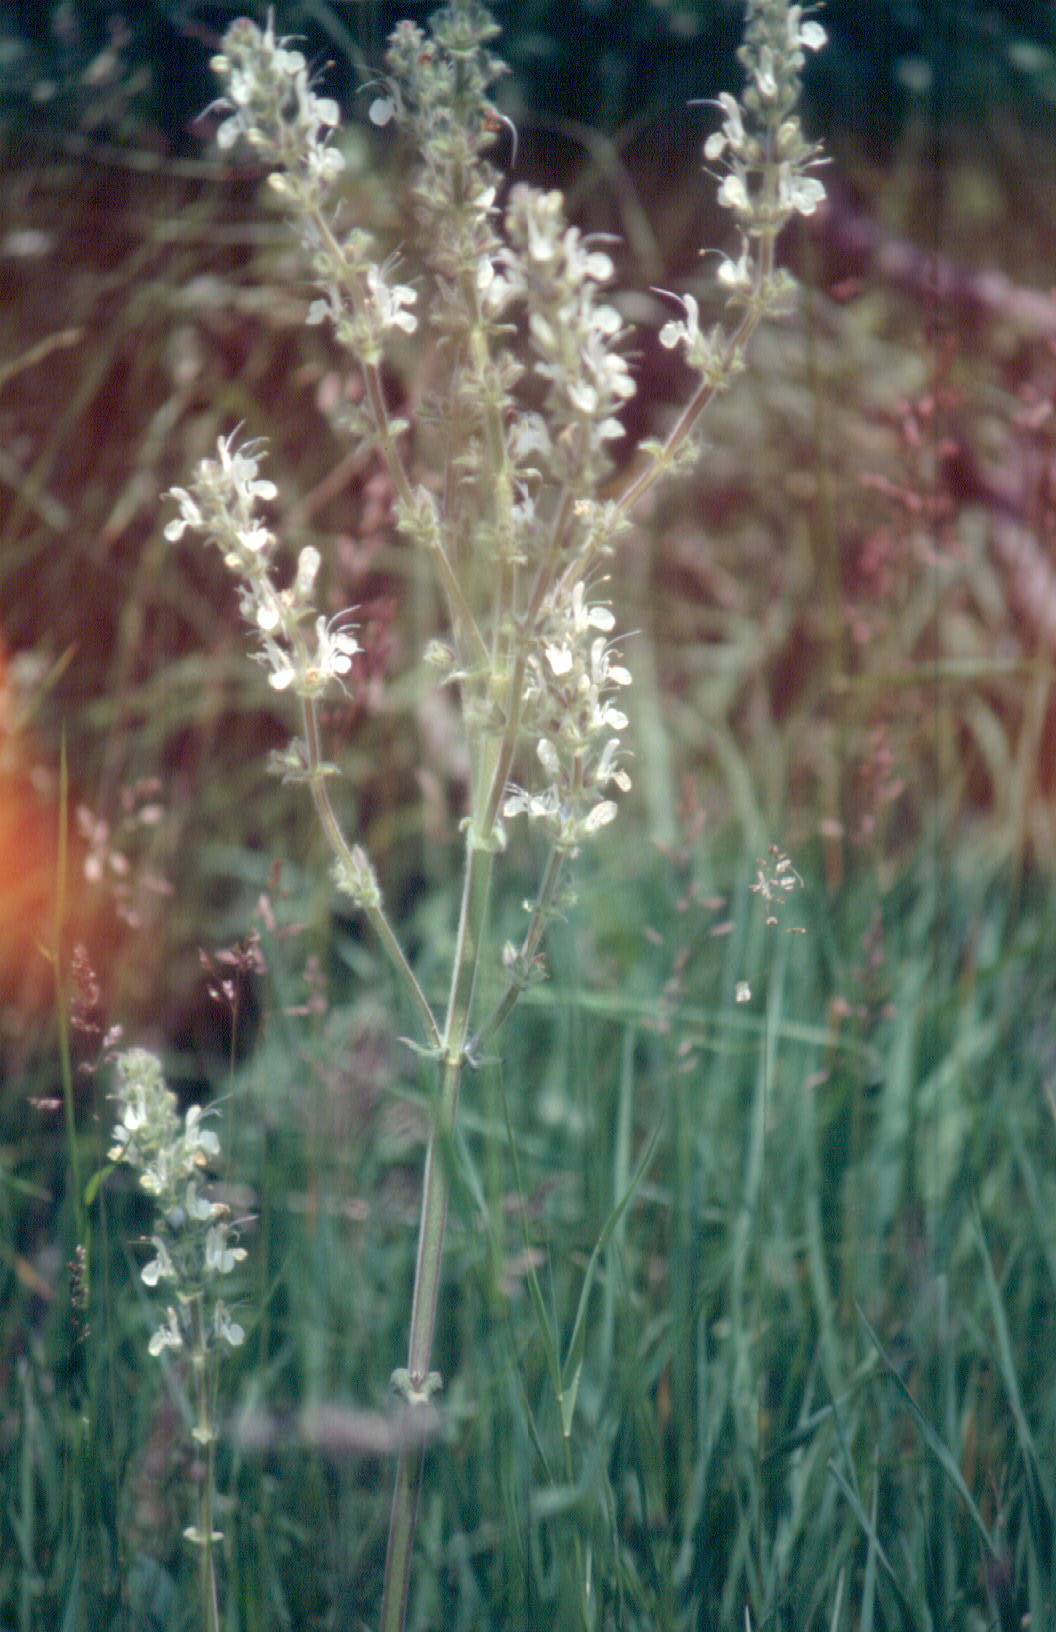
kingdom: Plantae
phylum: Tracheophyta
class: Magnoliopsida
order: Lamiales
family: Lamiaceae
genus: Salvia
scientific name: Salvia austriaca
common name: Austrian sage
